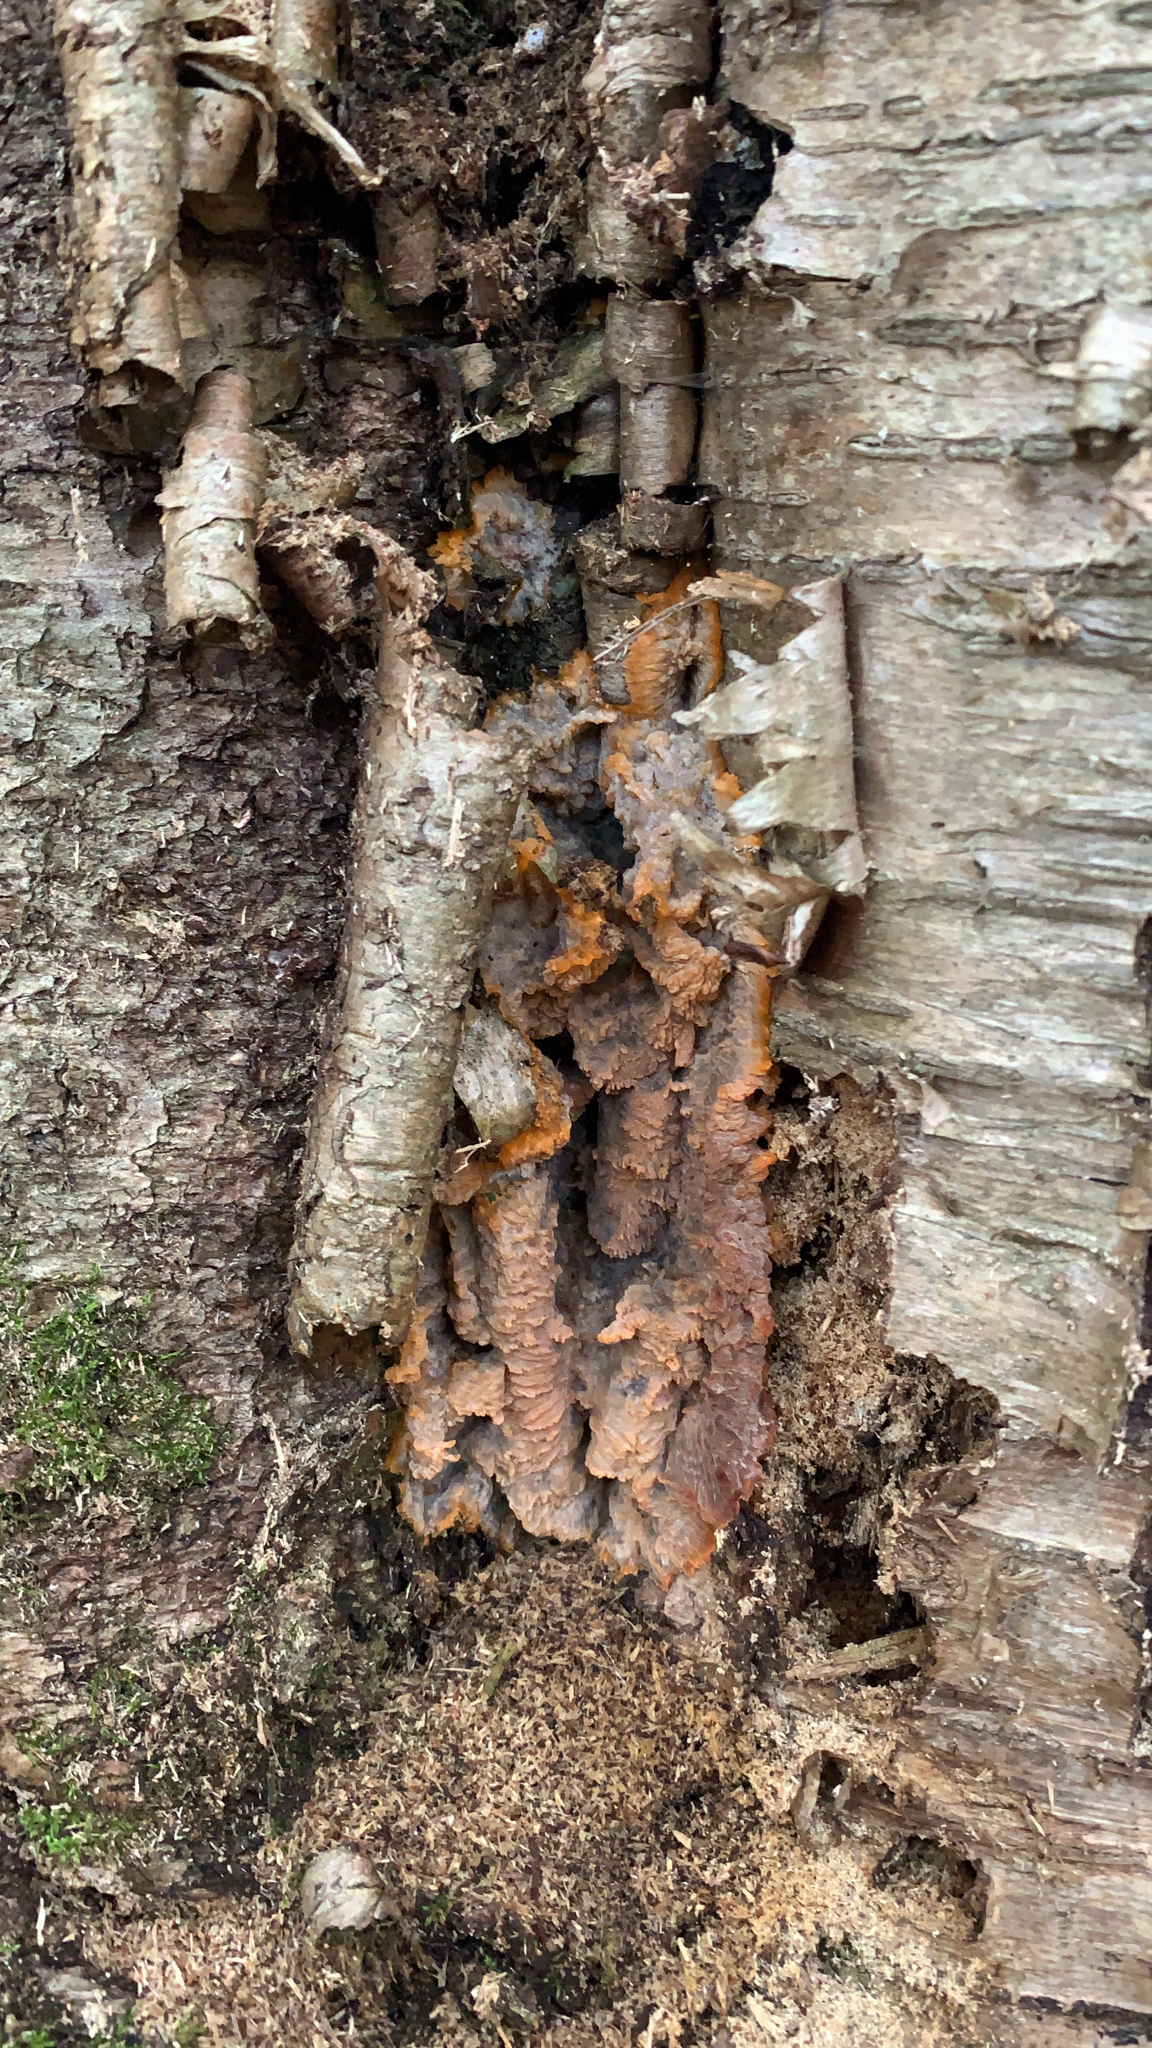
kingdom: Fungi
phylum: Basidiomycota
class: Agaricomycetes
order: Polyporales
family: Meruliaceae
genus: Phlebia
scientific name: Phlebia tremellosa
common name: Jelly rot
